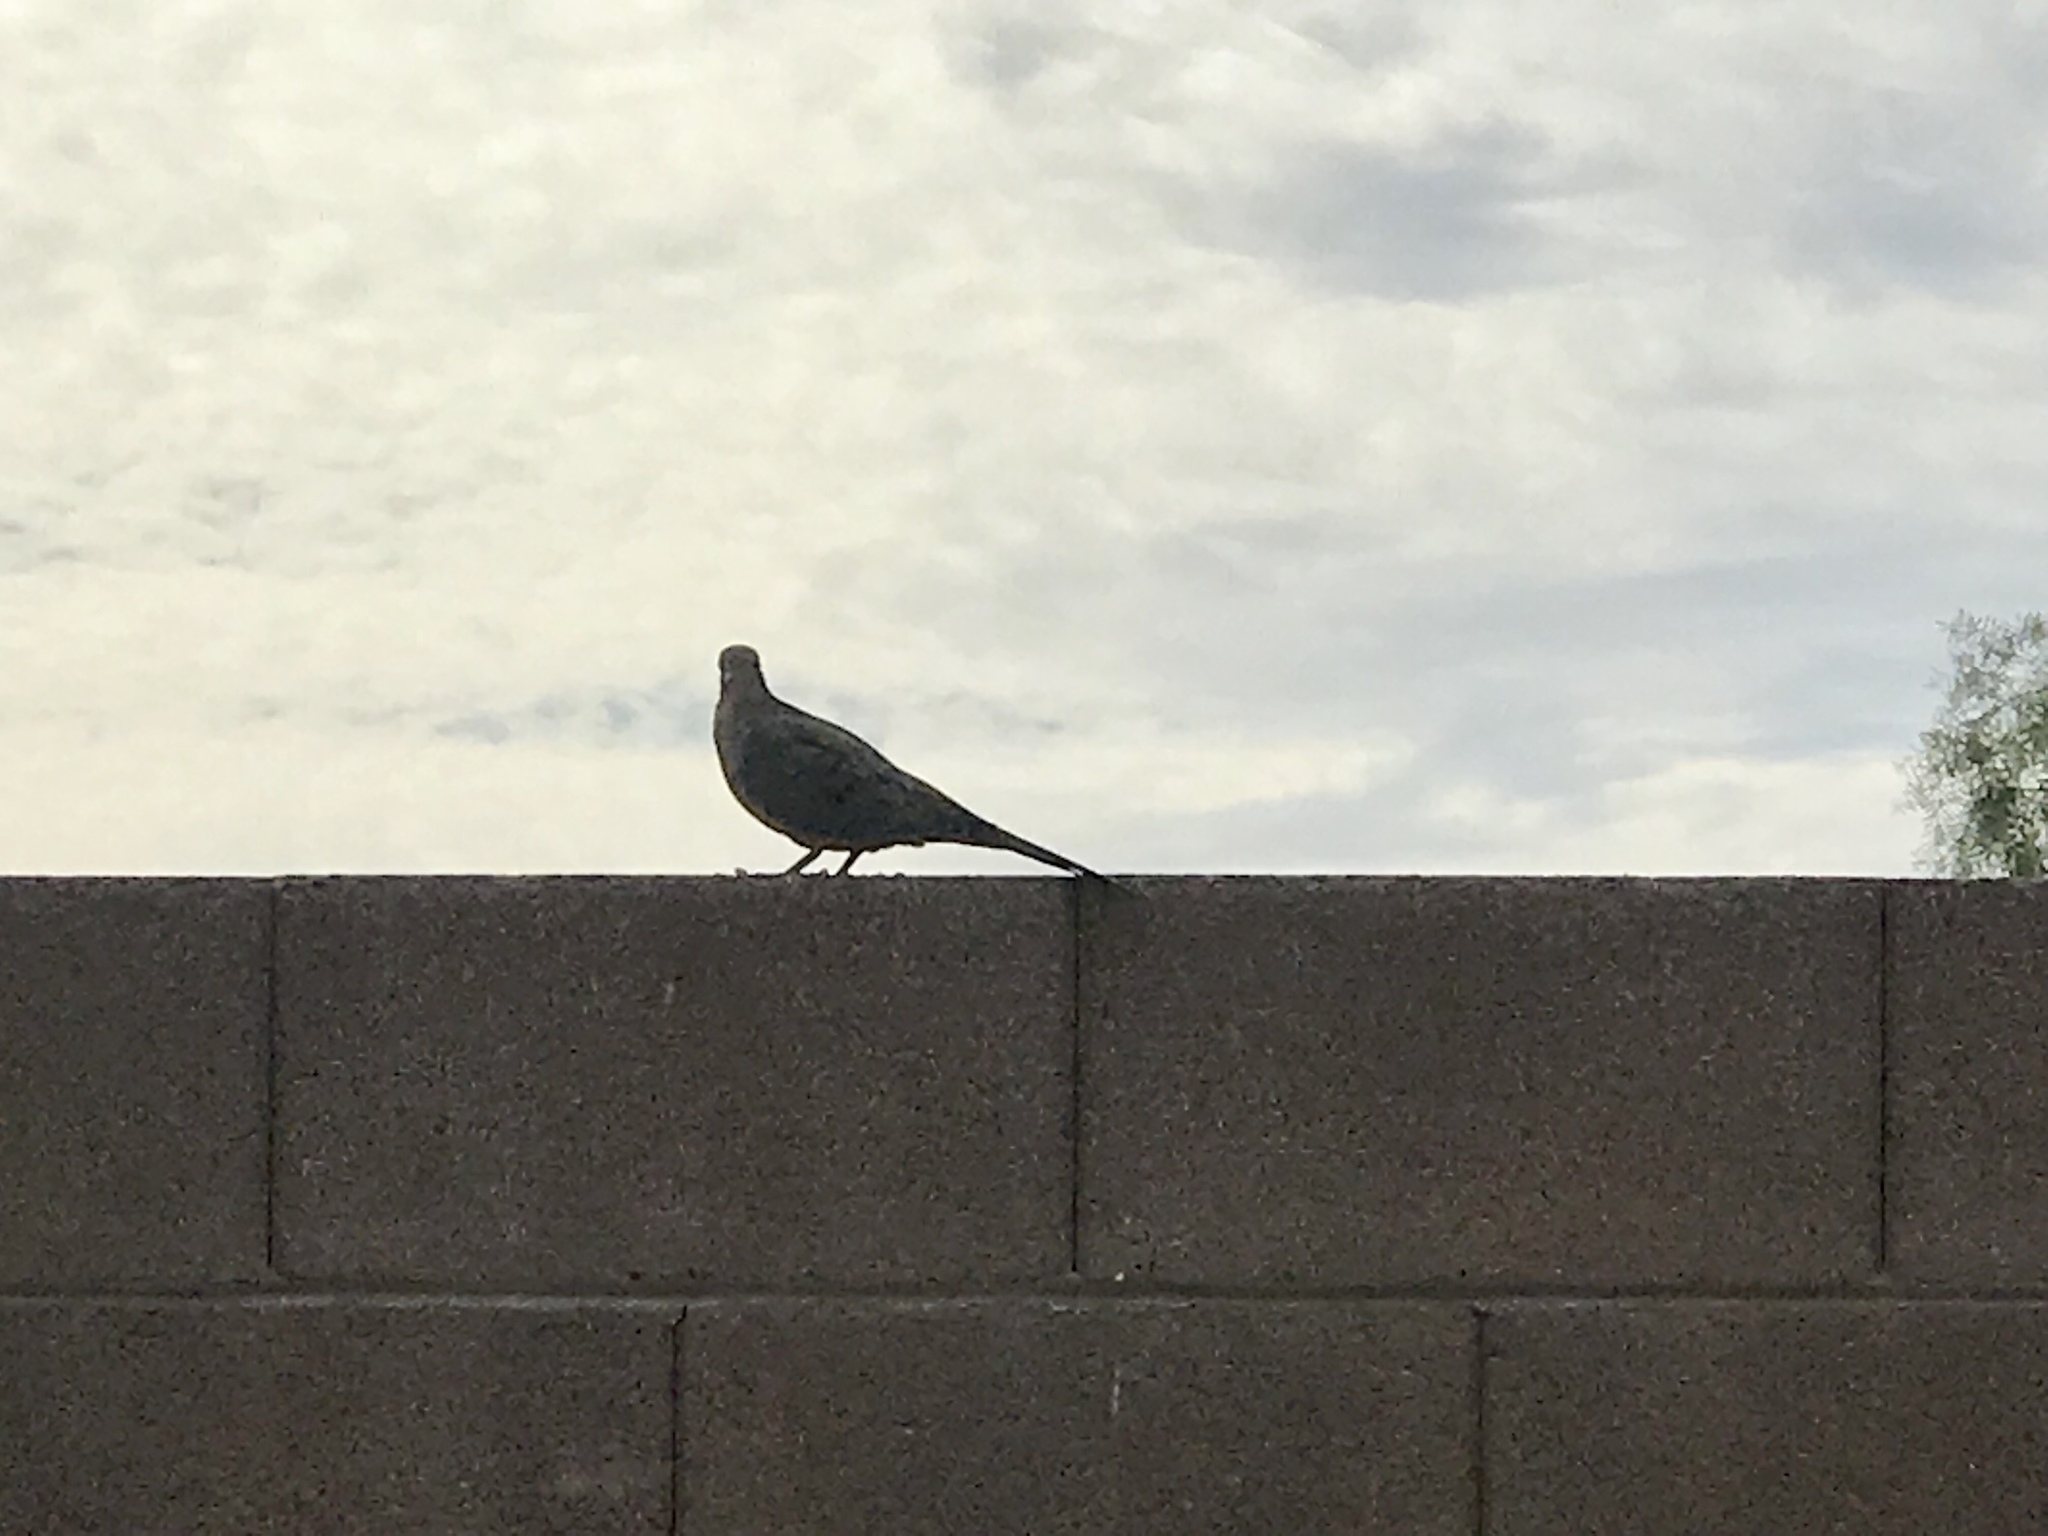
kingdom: Animalia
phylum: Chordata
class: Aves
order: Columbiformes
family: Columbidae
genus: Zenaida
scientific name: Zenaida macroura
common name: Mourning dove
